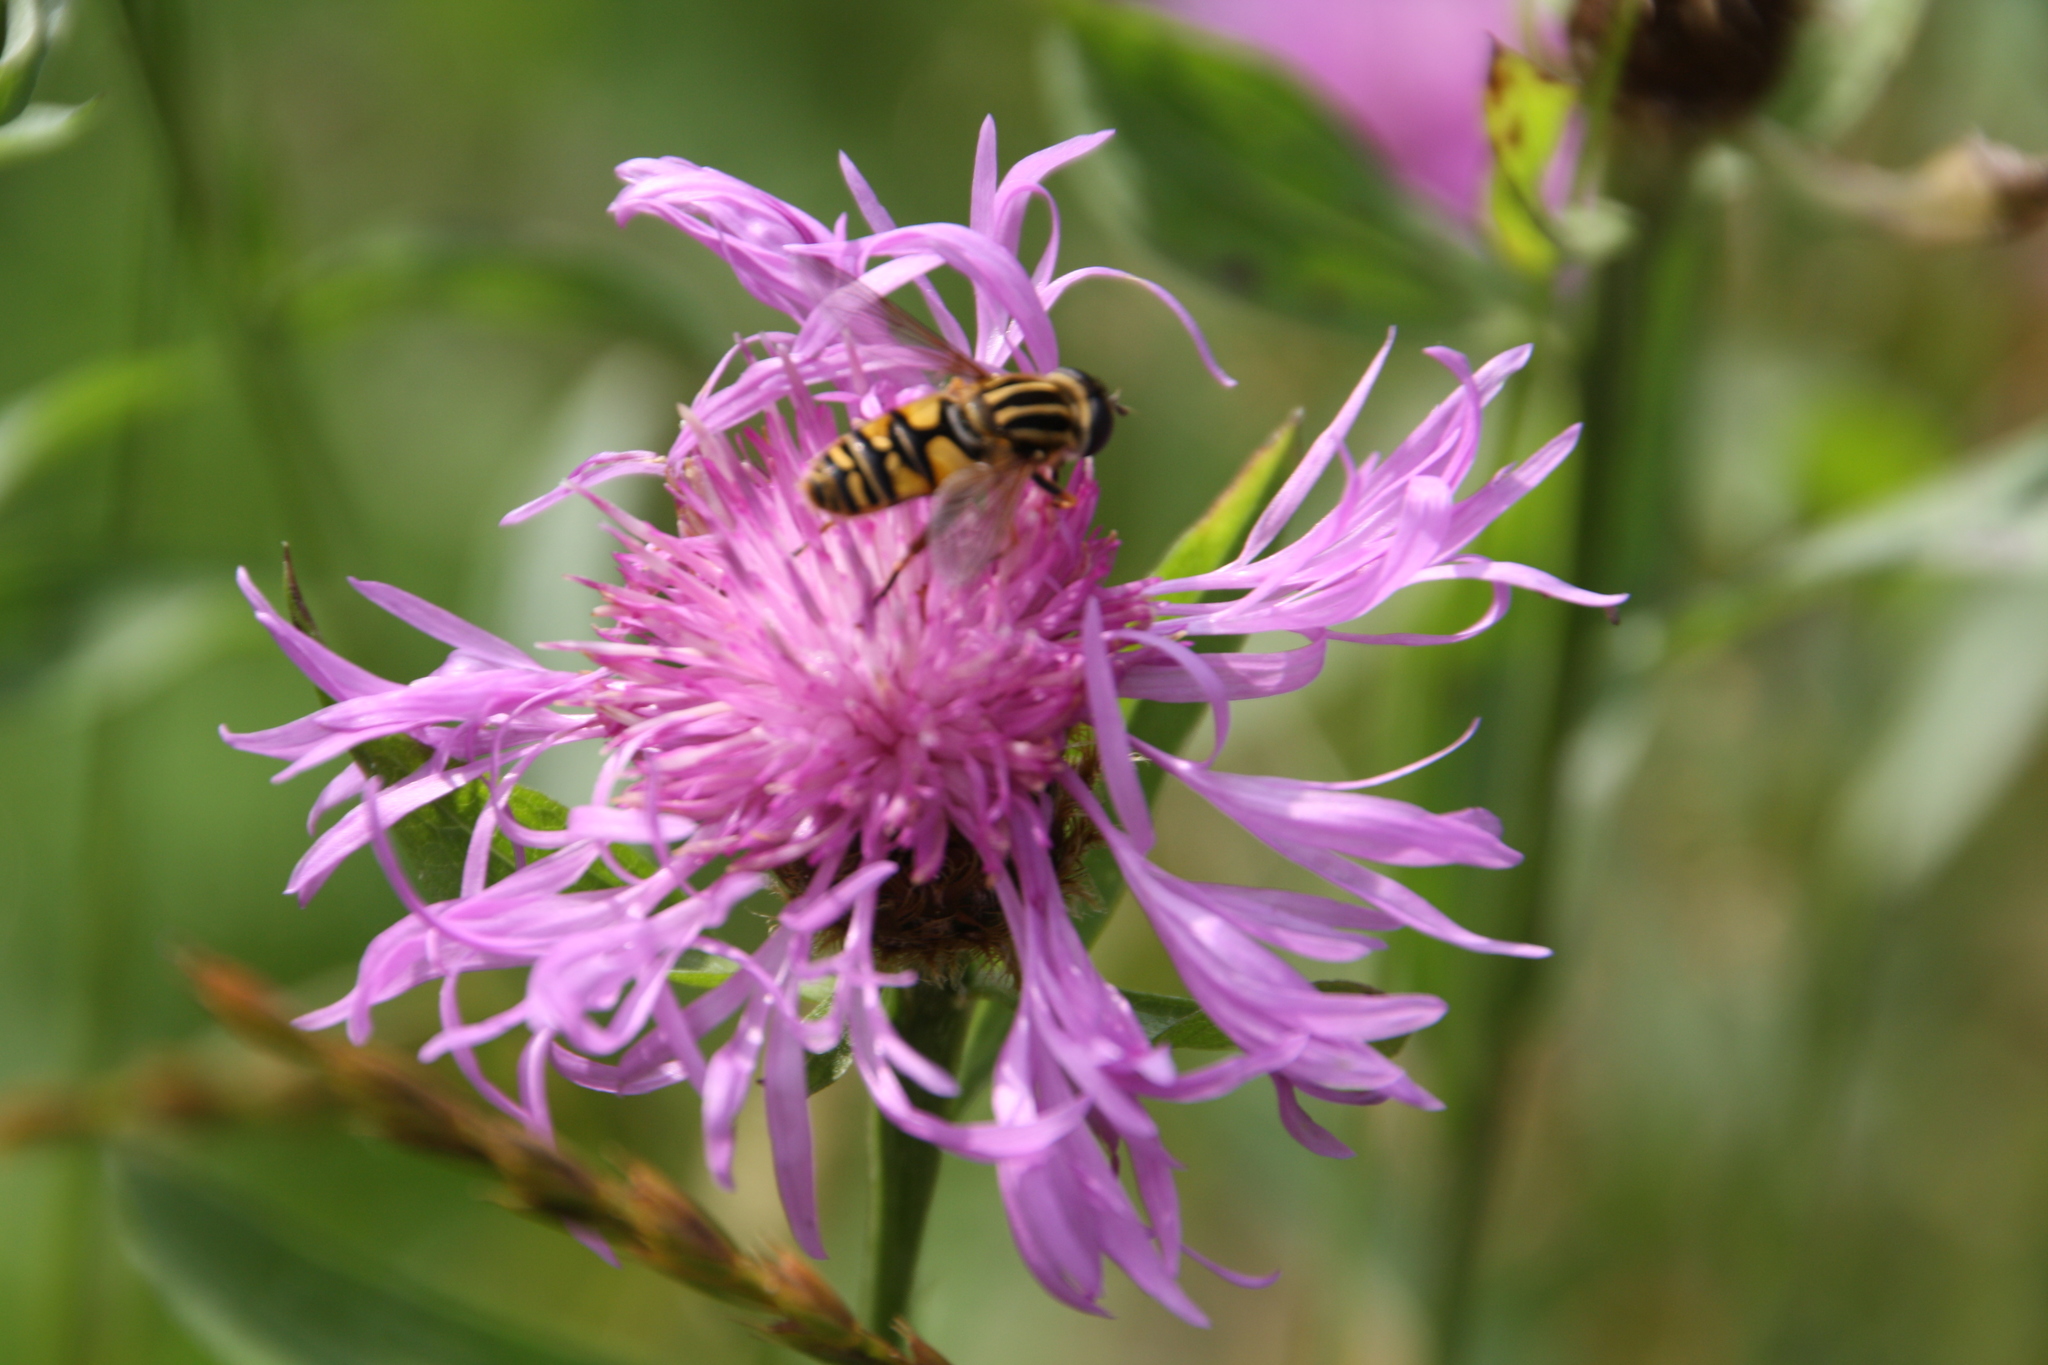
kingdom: Plantae
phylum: Tracheophyta
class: Magnoliopsida
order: Asterales
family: Asteraceae
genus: Centaurea
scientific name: Centaurea phrygia
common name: Wig knapweed
